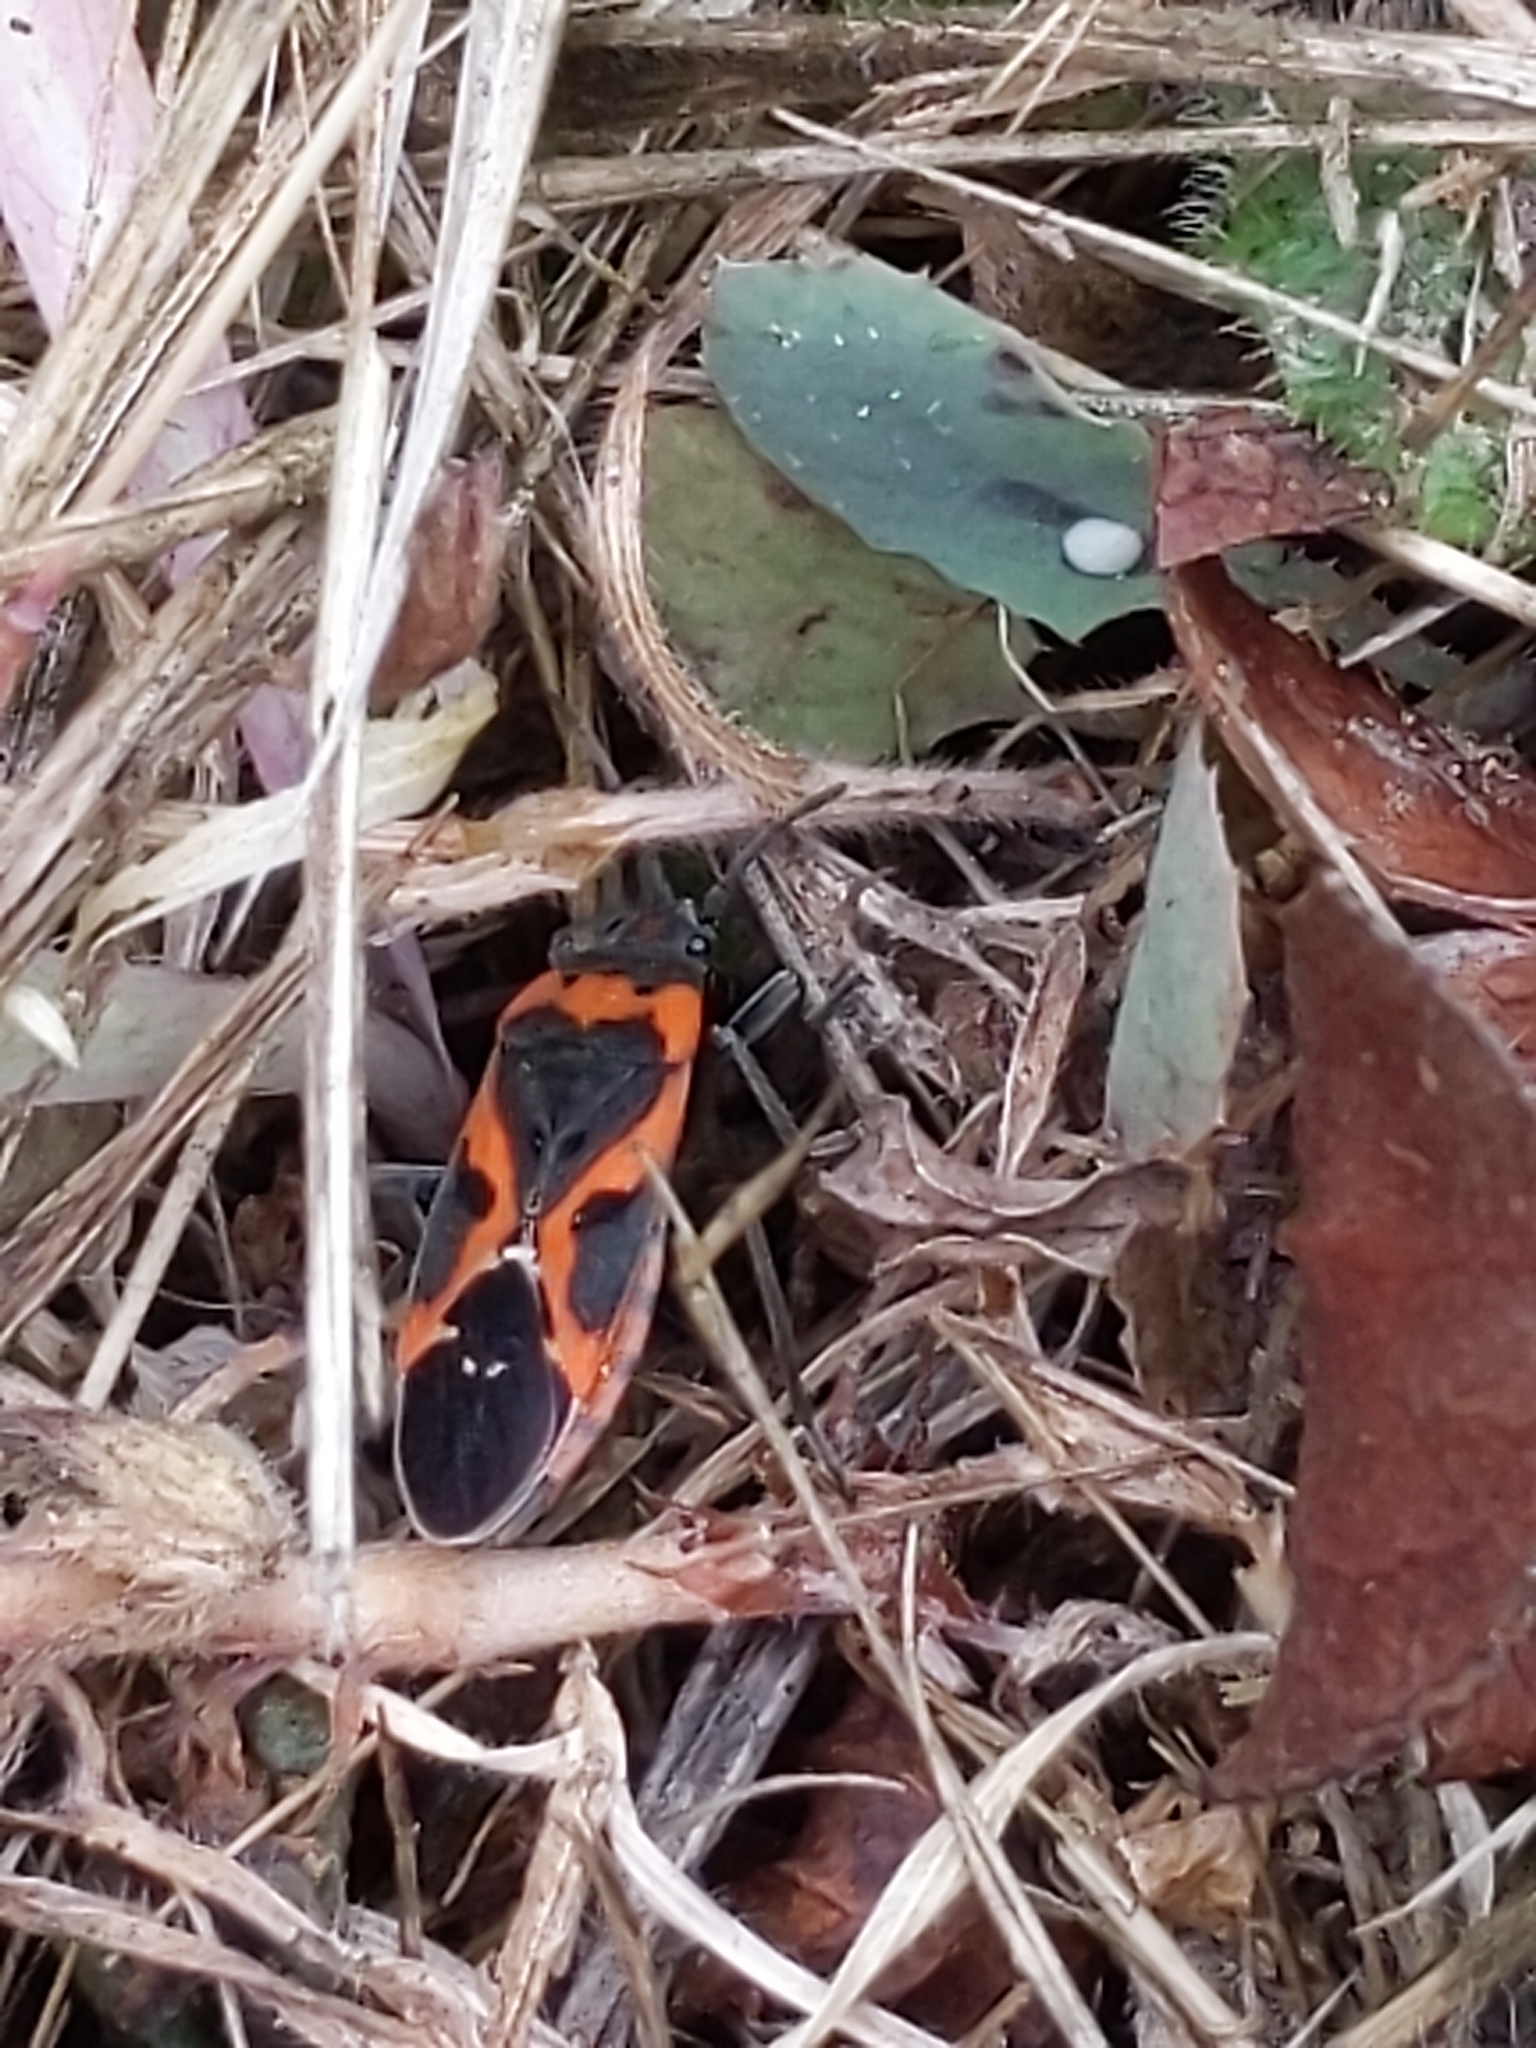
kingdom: Animalia
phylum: Arthropoda
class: Insecta
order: Hemiptera
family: Lygaeidae
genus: Lygaeus
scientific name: Lygaeus kalmii
